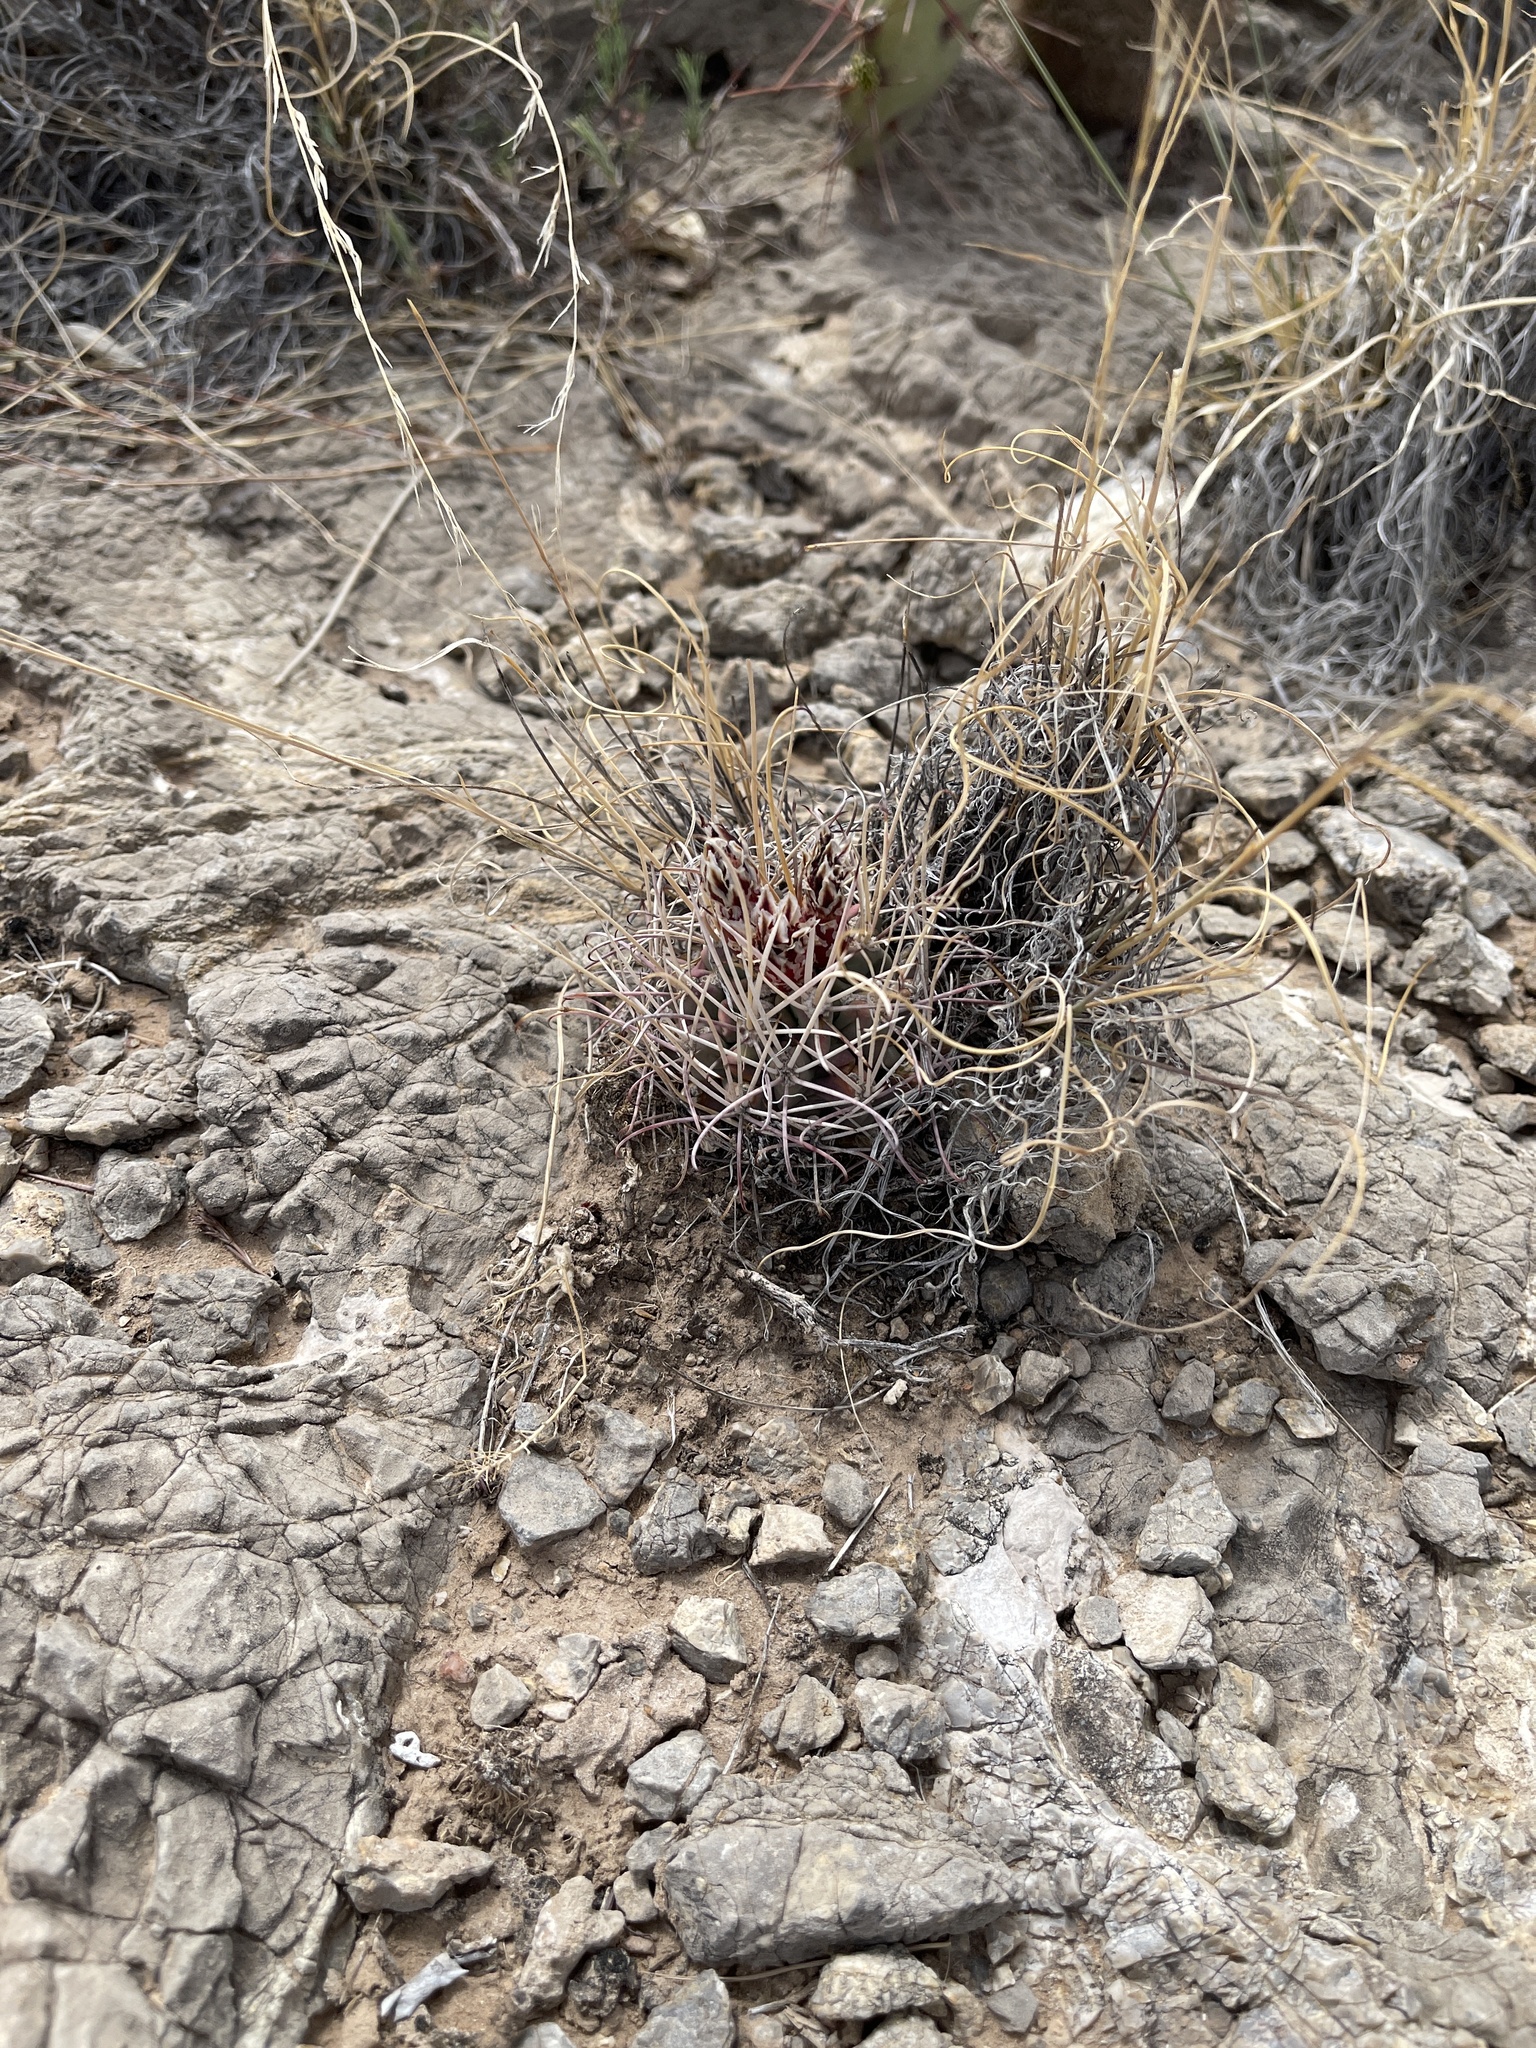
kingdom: Plantae
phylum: Tracheophyta
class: Magnoliopsida
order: Caryophyllales
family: Cactaceae
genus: Ferocactus
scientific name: Ferocactus uncinatus
